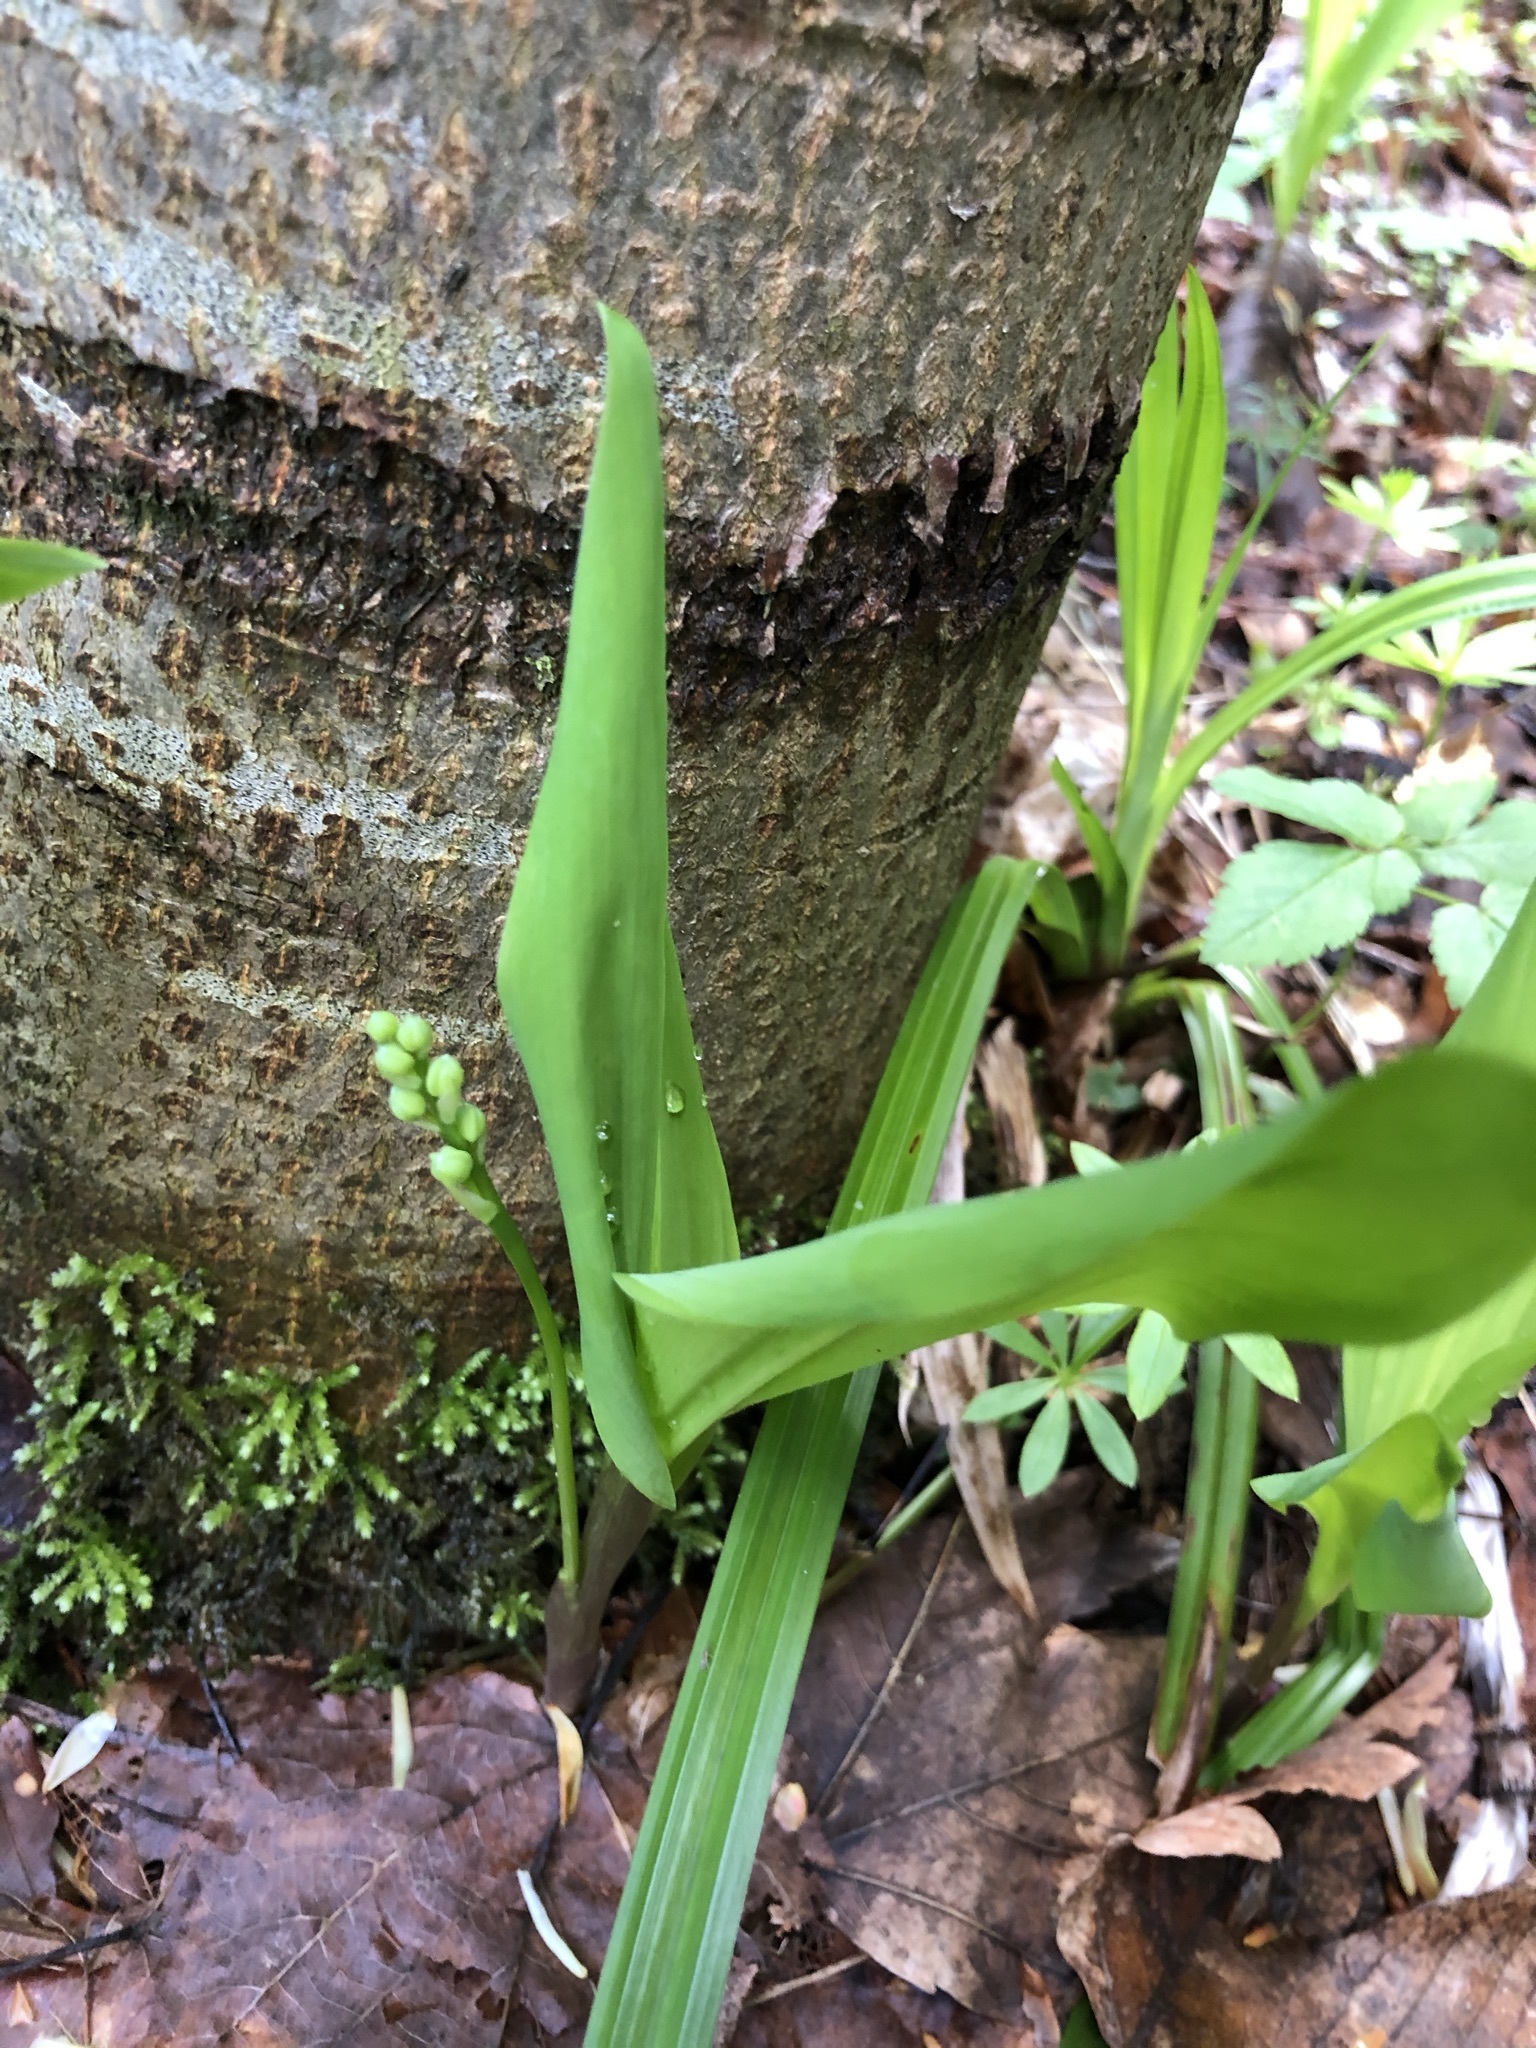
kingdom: Plantae
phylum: Tracheophyta
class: Liliopsida
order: Asparagales
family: Asparagaceae
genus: Convallaria
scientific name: Convallaria majalis
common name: Lily-of-the-valley
